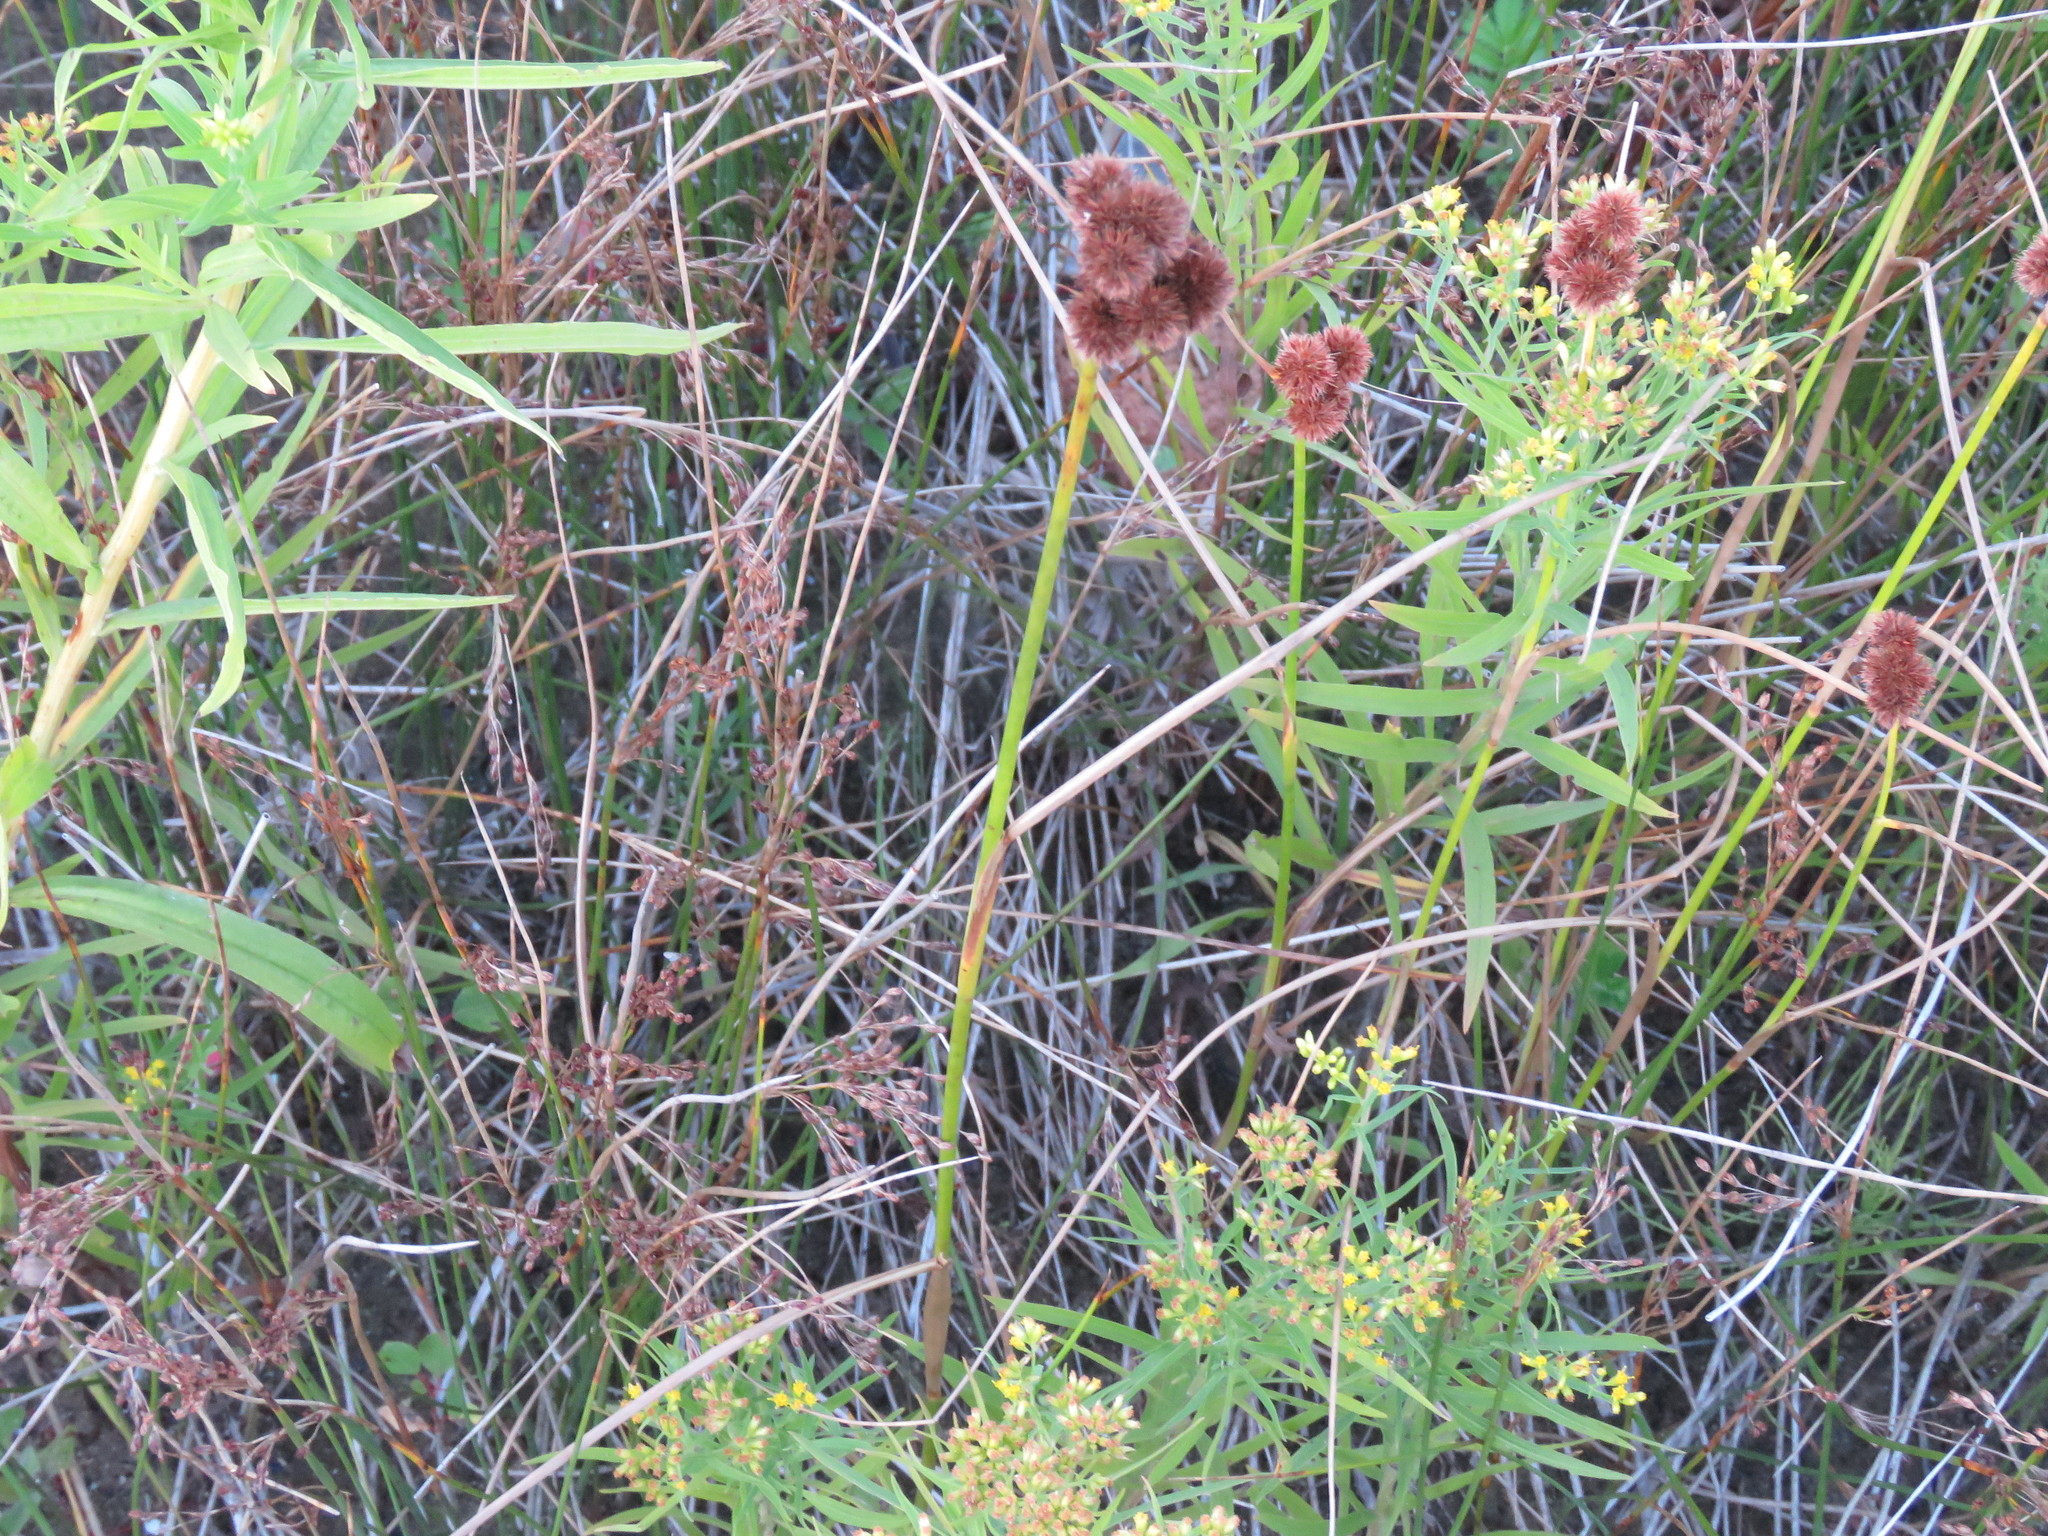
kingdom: Plantae
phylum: Tracheophyta
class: Liliopsida
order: Poales
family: Juncaceae
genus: Juncus
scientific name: Juncus torreyi
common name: Torrey's rush
